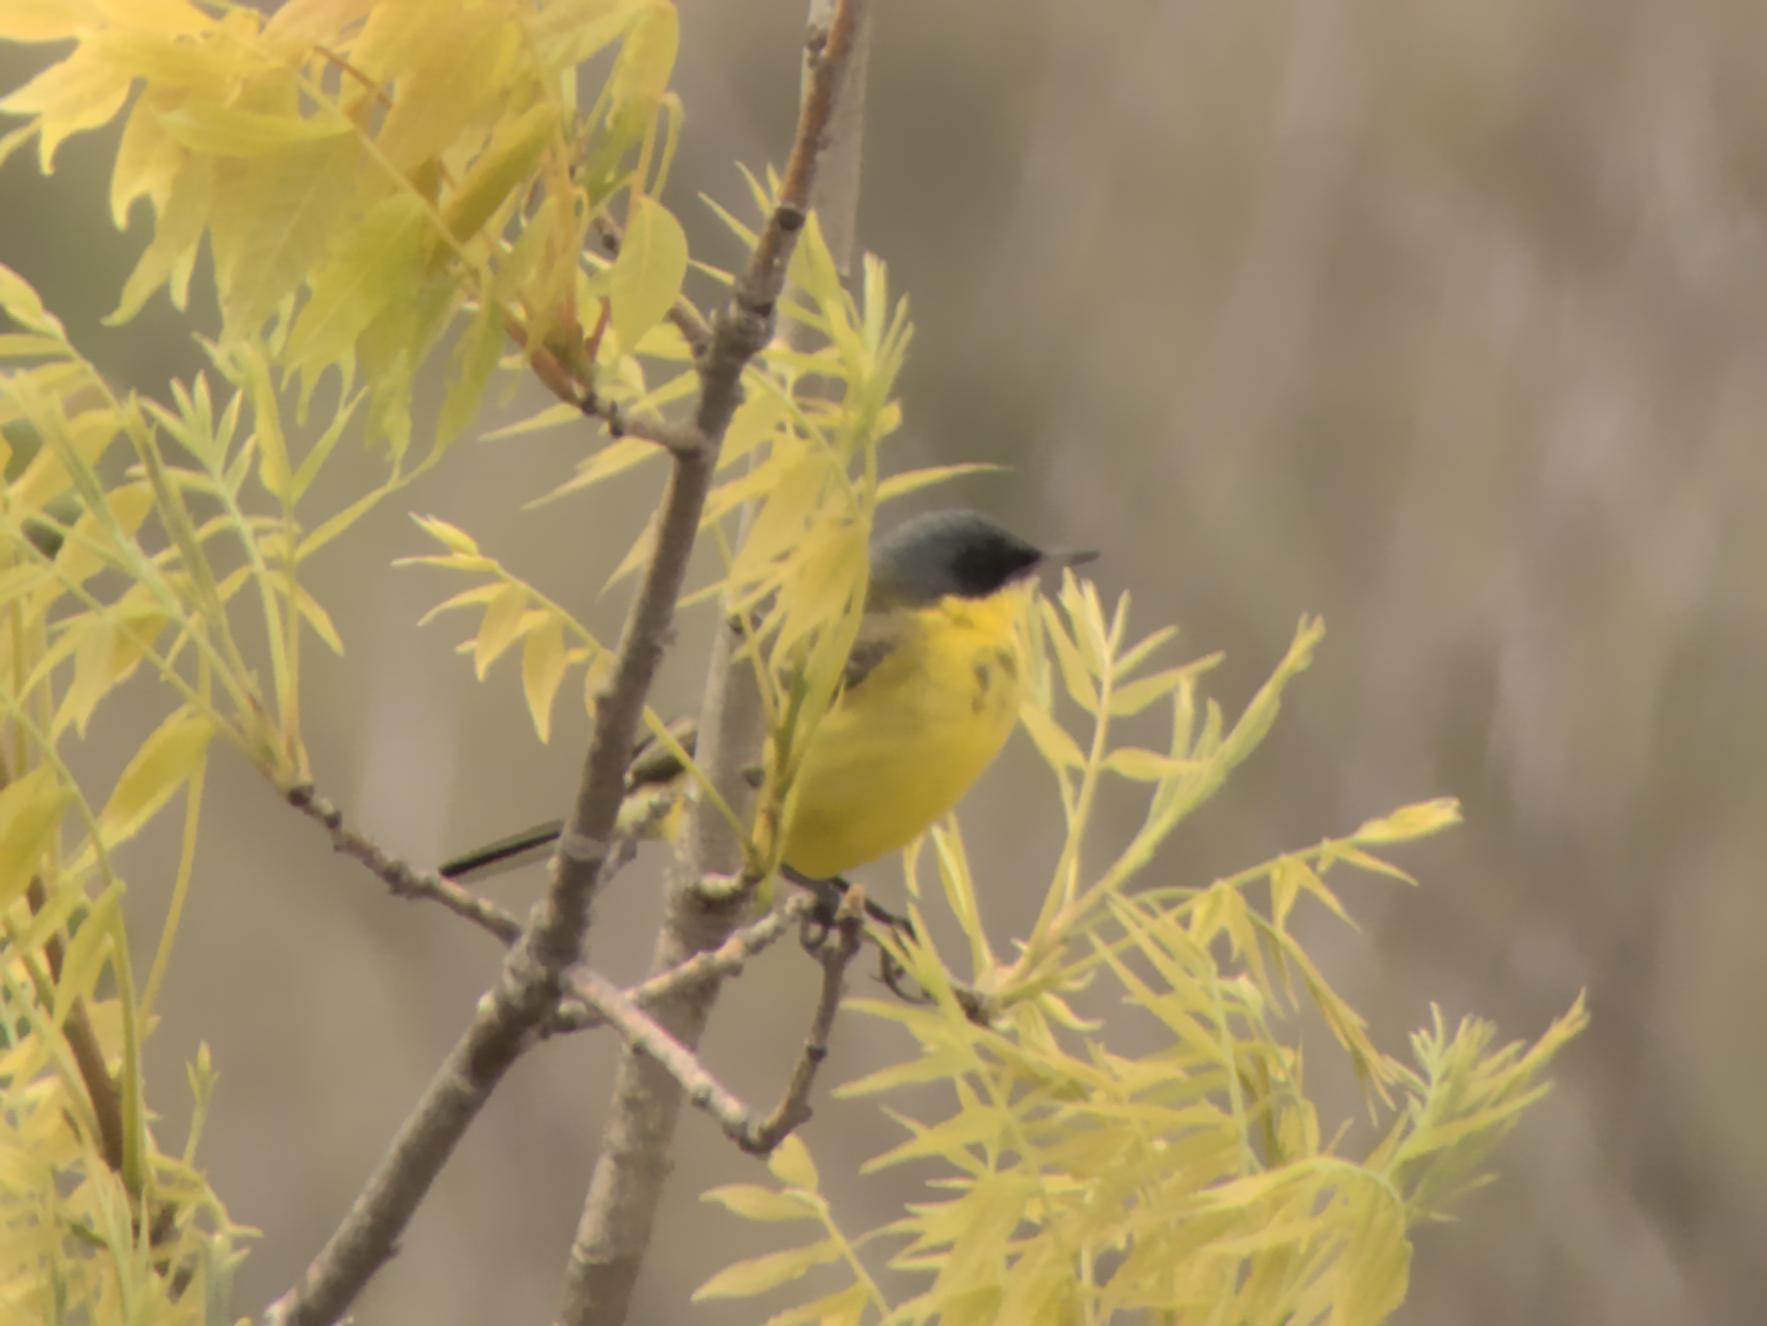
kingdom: Animalia
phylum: Chordata
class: Aves
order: Passeriformes
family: Motacillidae
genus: Motacilla
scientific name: Motacilla flava
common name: Western yellow wagtail
